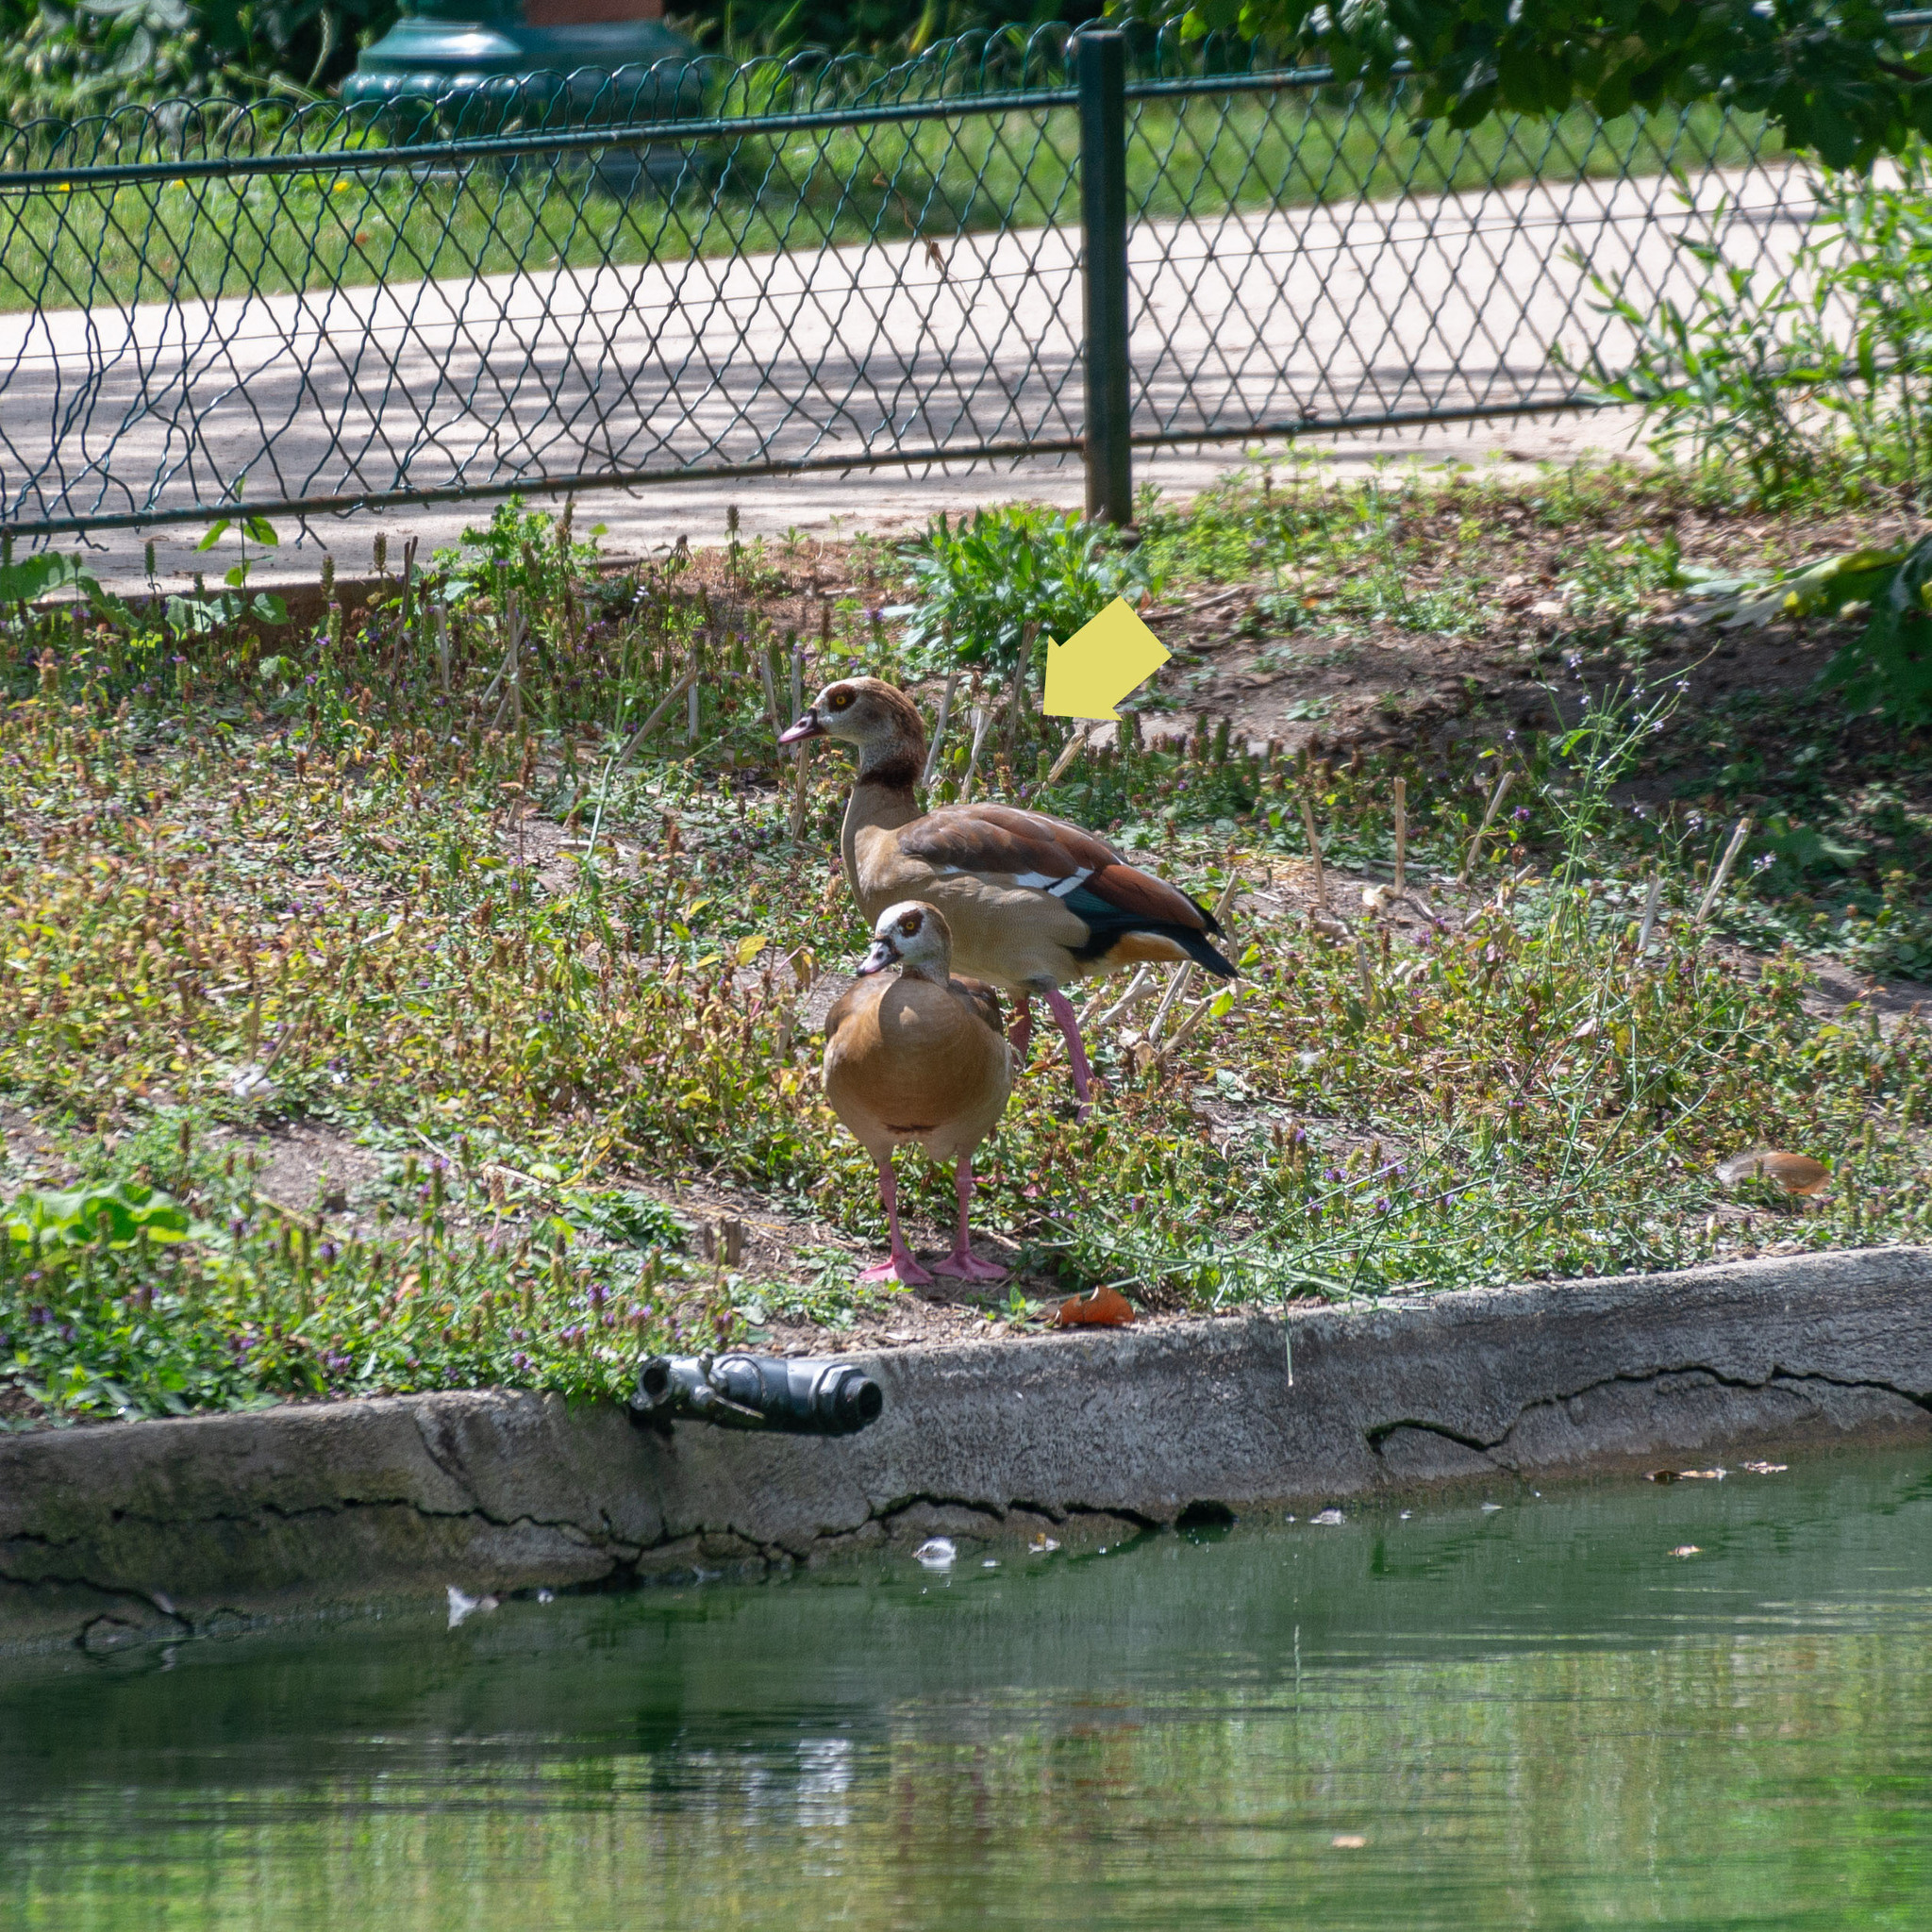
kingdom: Animalia
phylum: Chordata
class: Aves
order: Anseriformes
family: Anatidae
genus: Alopochen
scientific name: Alopochen aegyptiaca
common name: Egyptian goose
